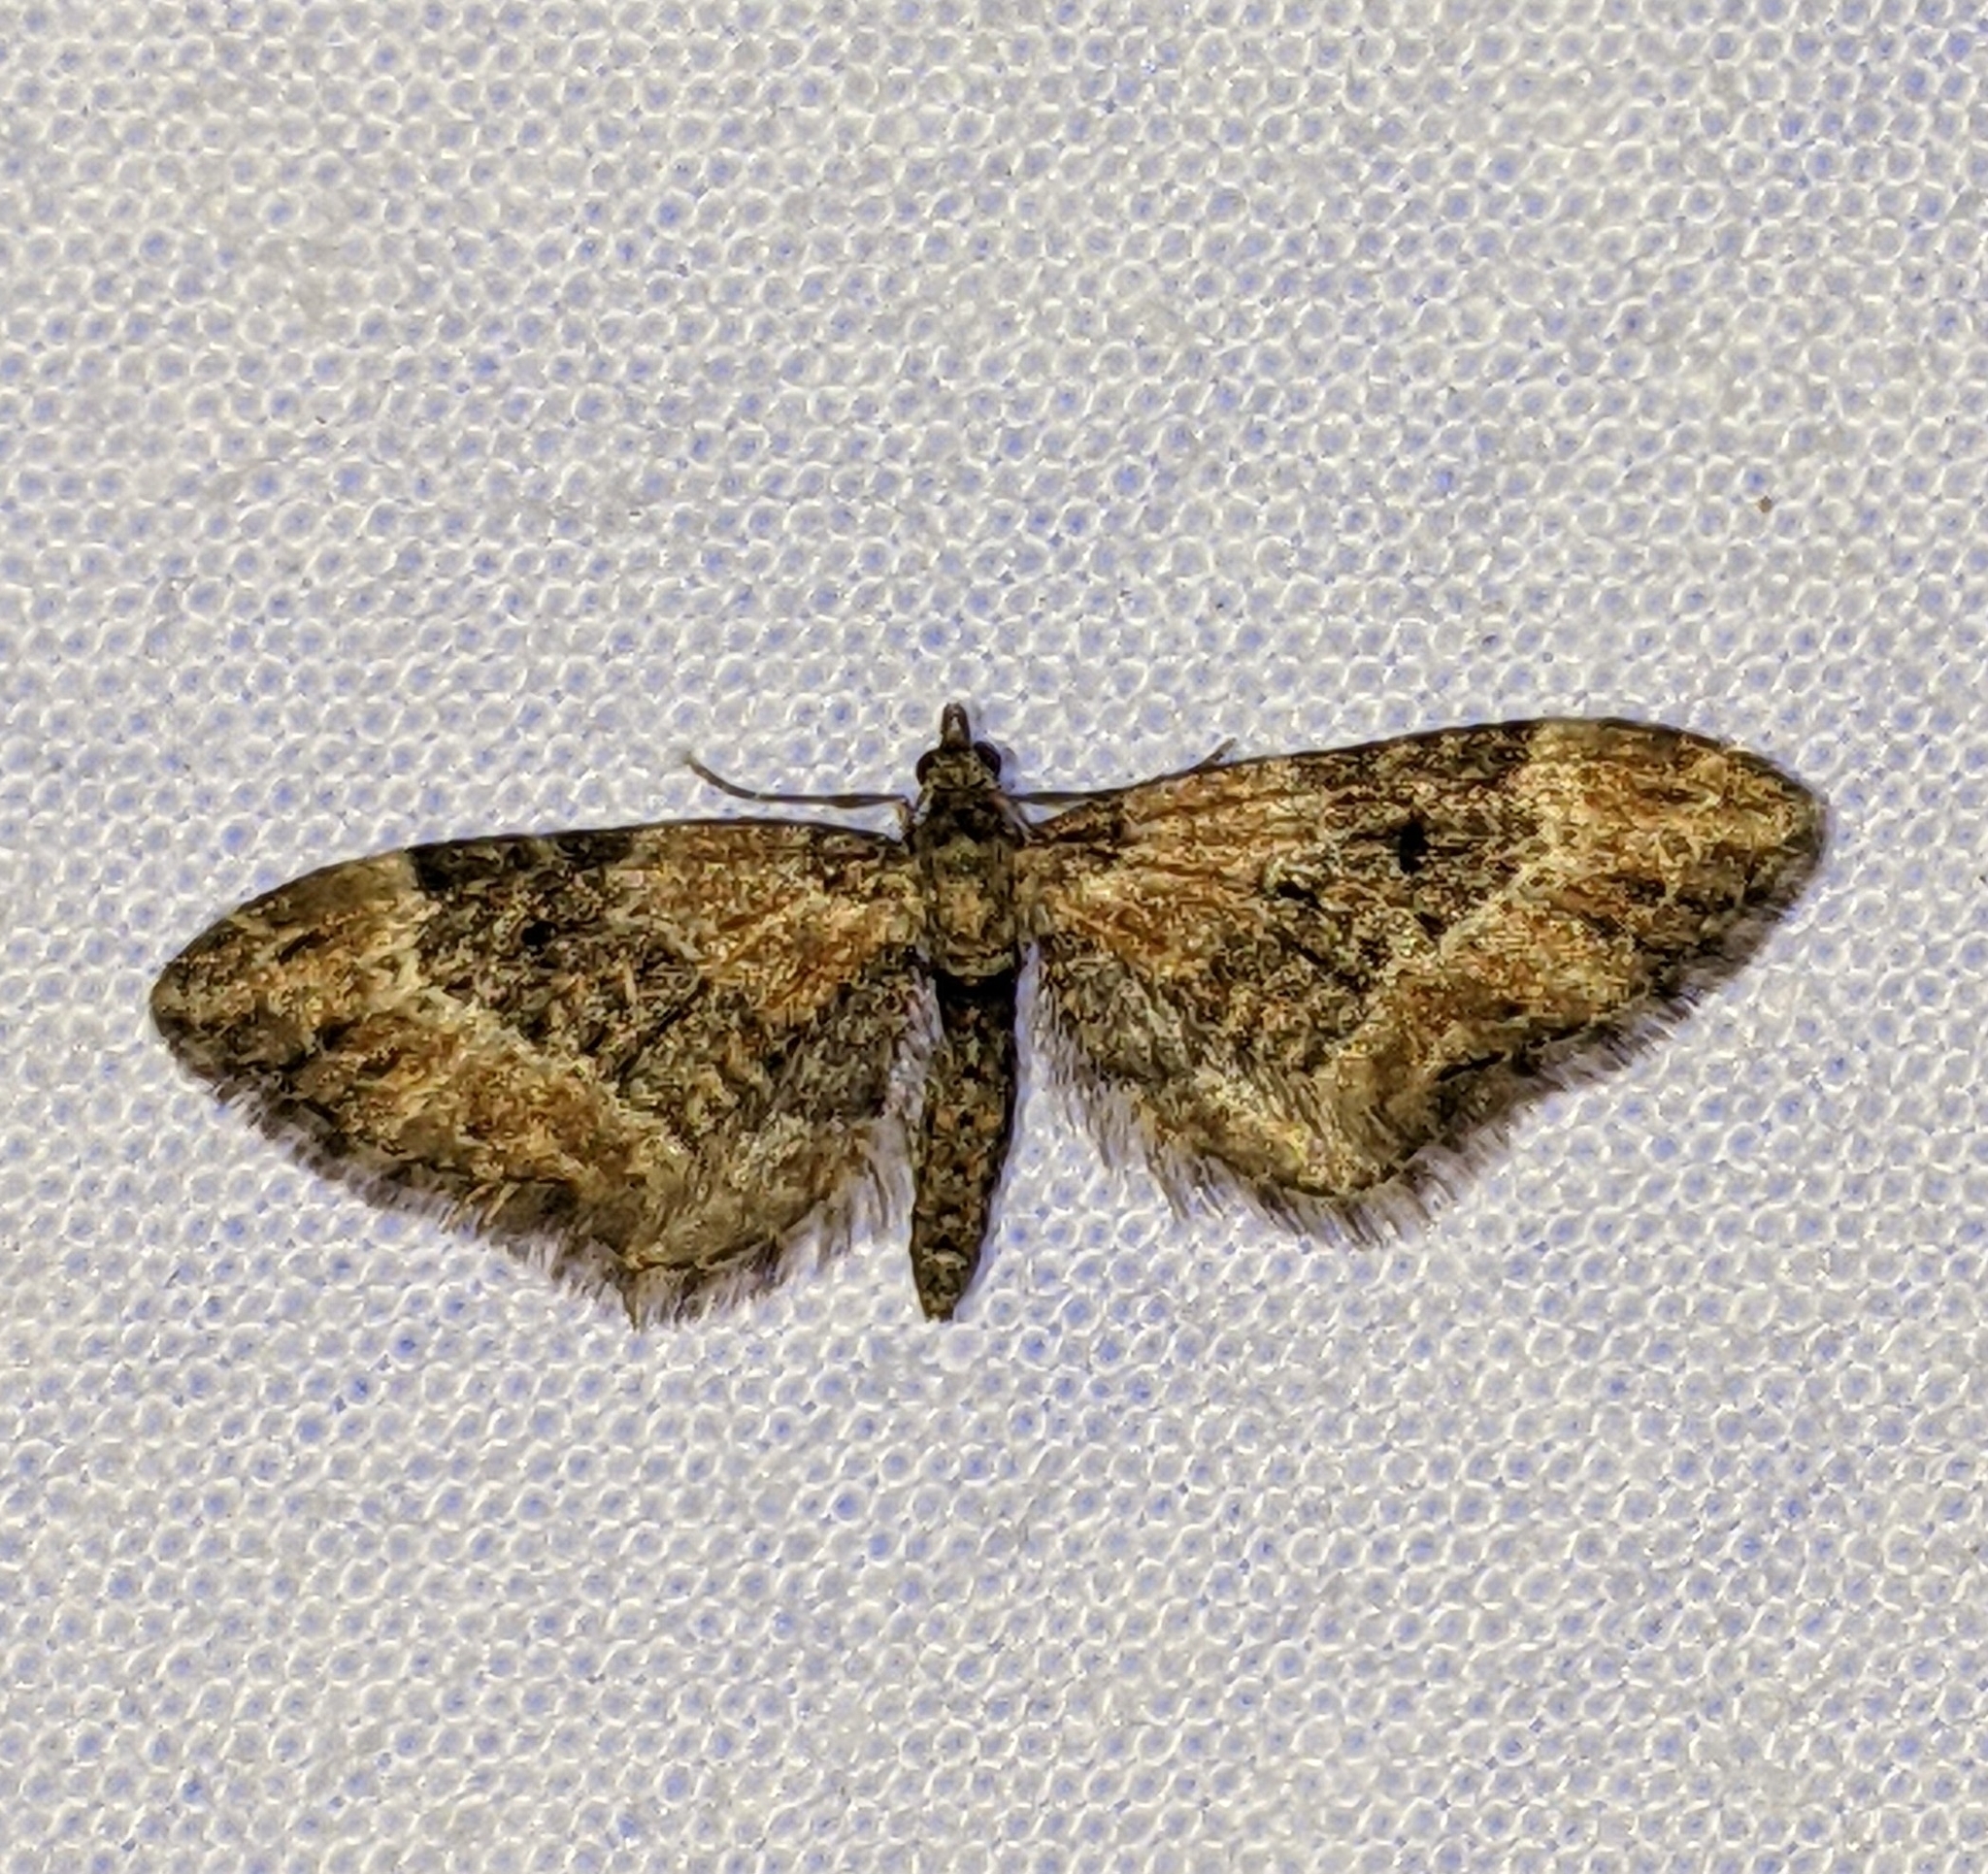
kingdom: Animalia
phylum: Arthropoda
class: Insecta
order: Lepidoptera
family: Geometridae
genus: Eupithecia
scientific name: Eupithecia rotundopuncta
